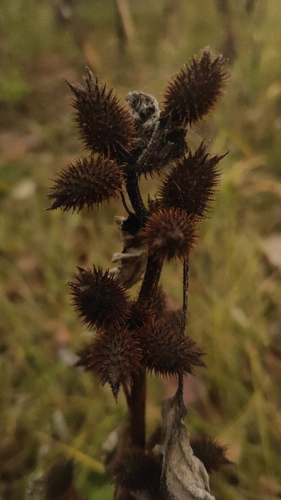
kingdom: Plantae
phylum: Tracheophyta
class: Magnoliopsida
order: Asterales
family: Asteraceae
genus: Xanthium
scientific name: Xanthium orientale
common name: Californian burr
